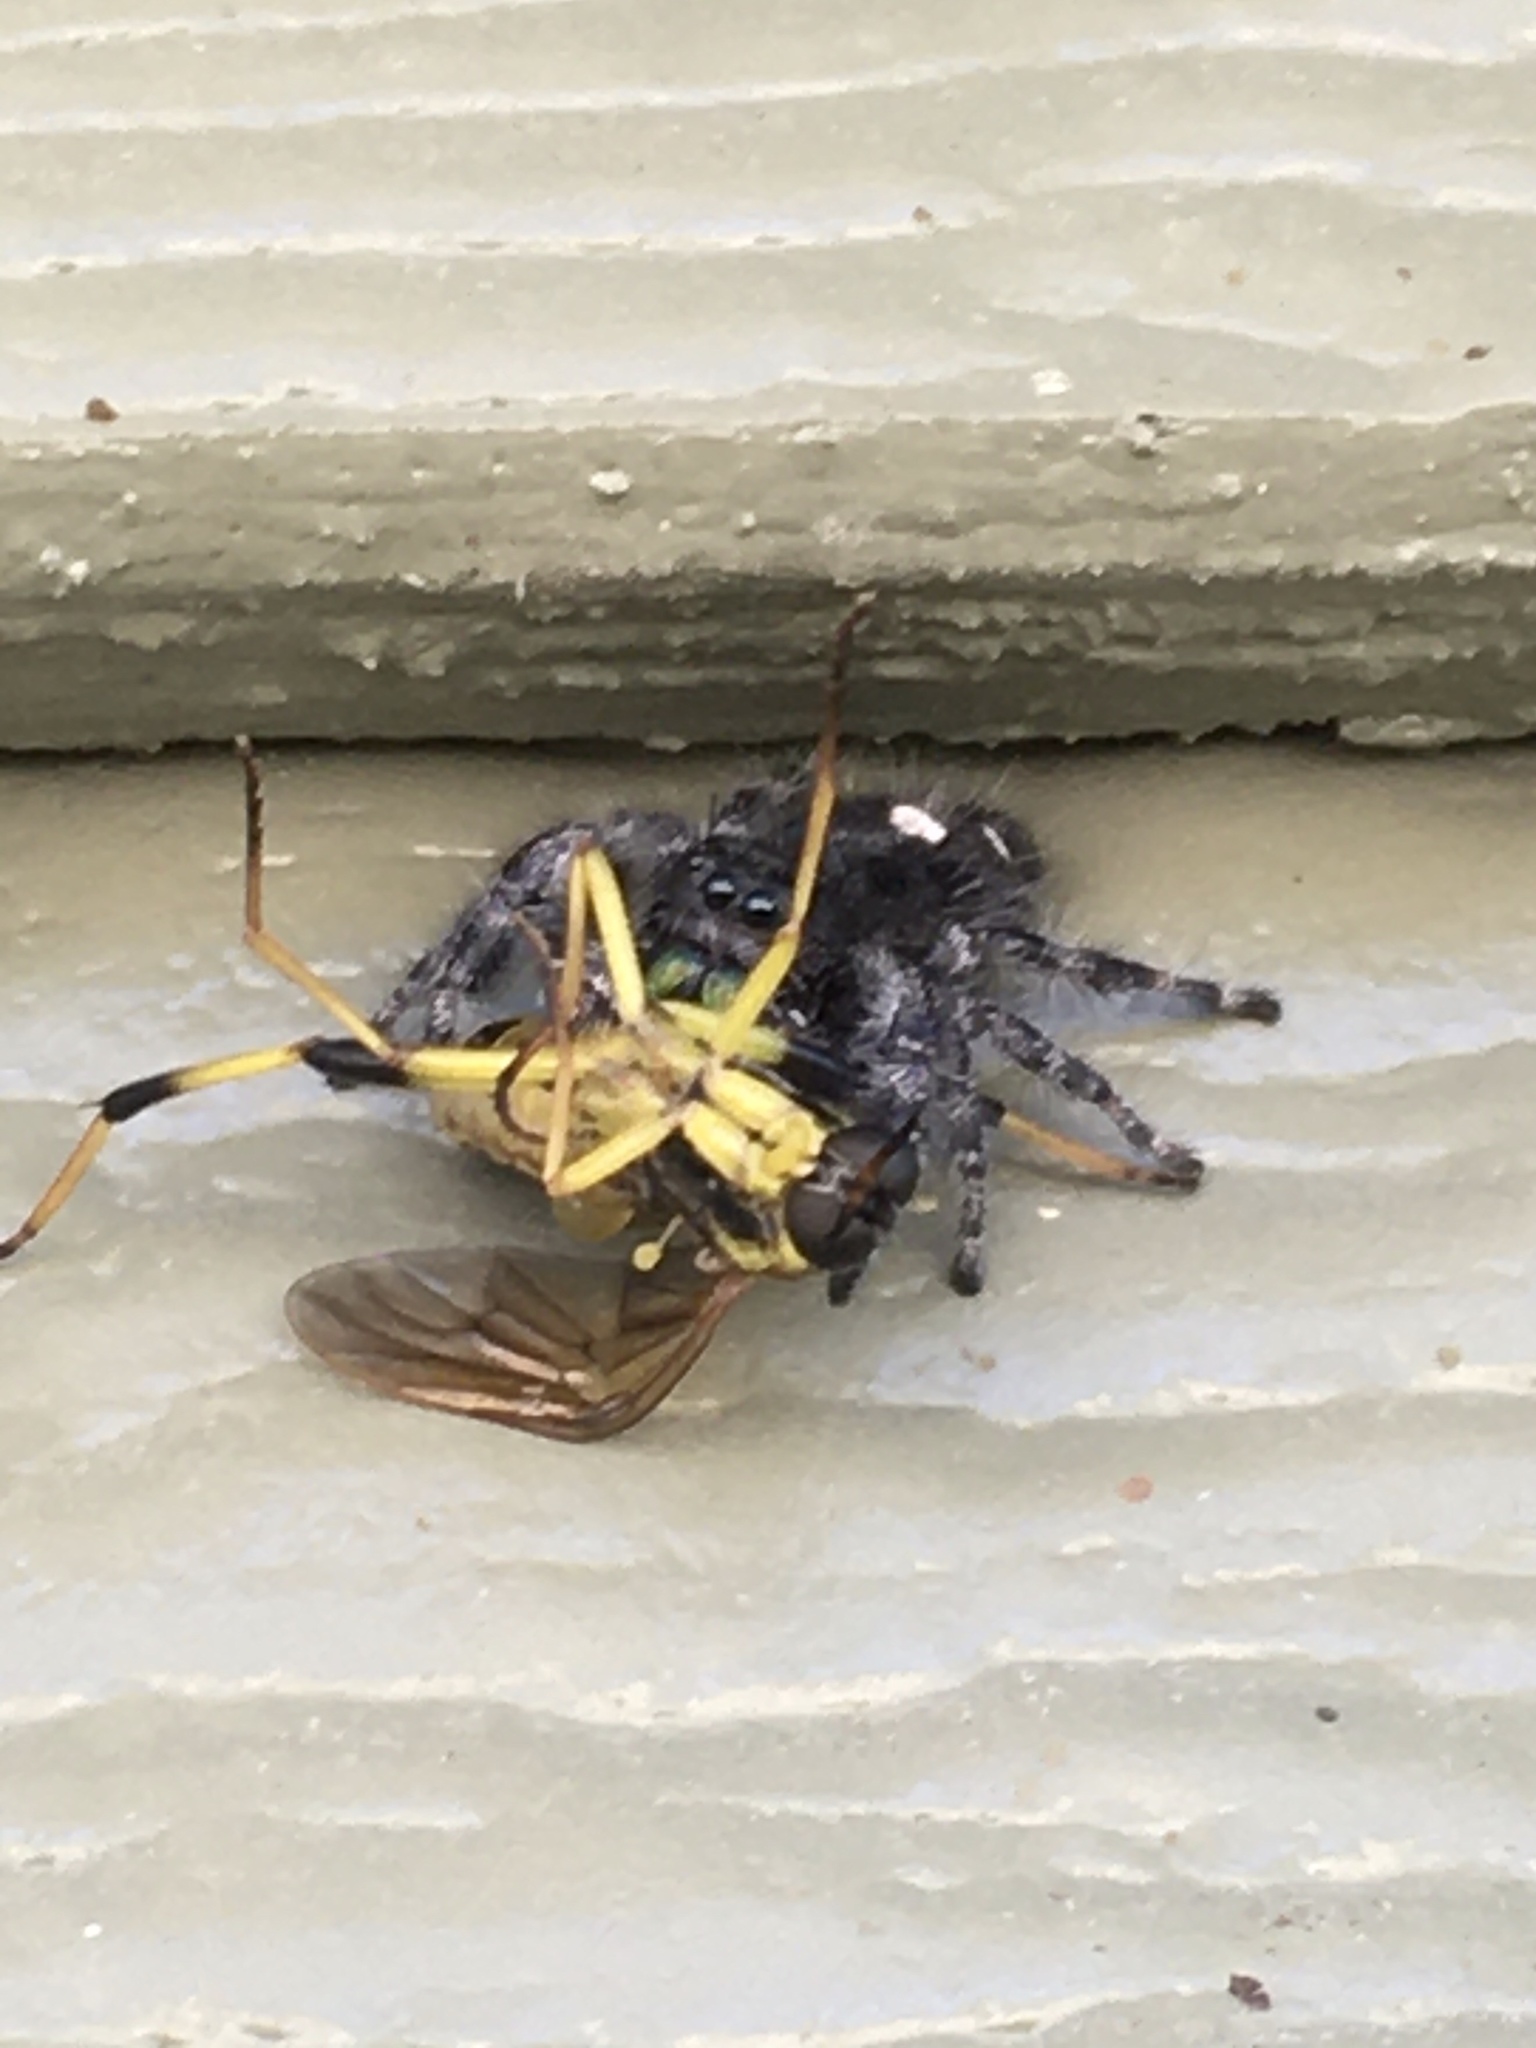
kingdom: Animalia
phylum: Arthropoda
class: Arachnida
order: Araneae
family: Salticidae
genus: Phidippus
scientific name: Phidippus audax
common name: Bold jumper
